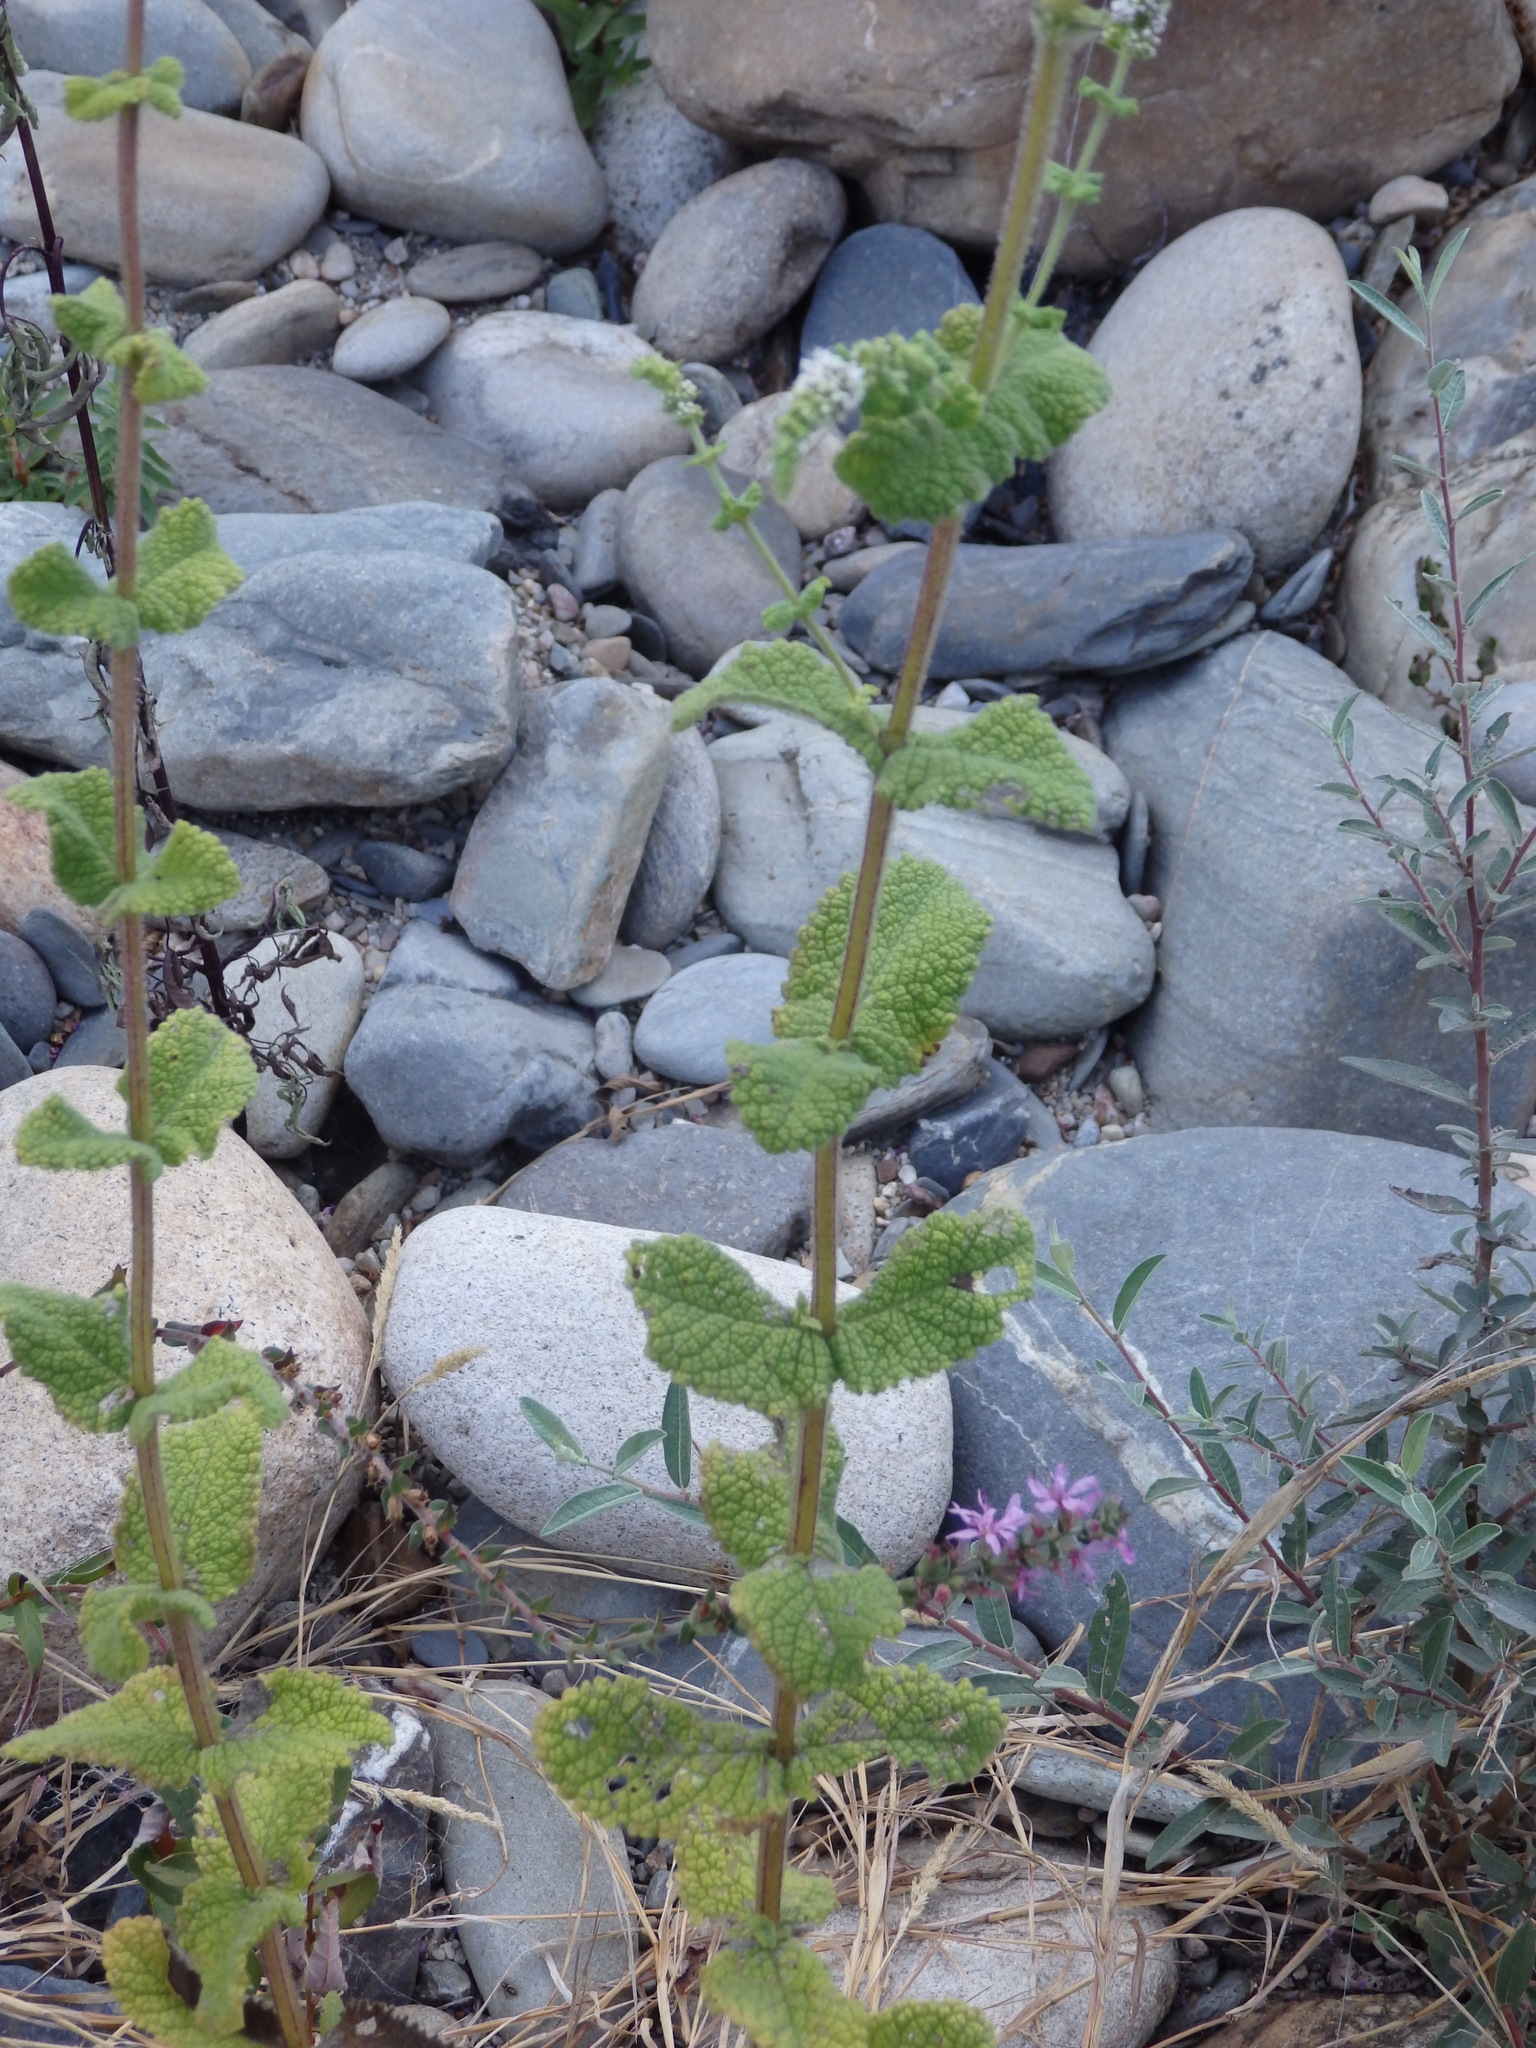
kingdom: Plantae
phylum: Tracheophyta
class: Magnoliopsida
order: Lamiales
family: Lamiaceae
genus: Mentha
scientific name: Mentha suaveolens
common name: Apple mint
